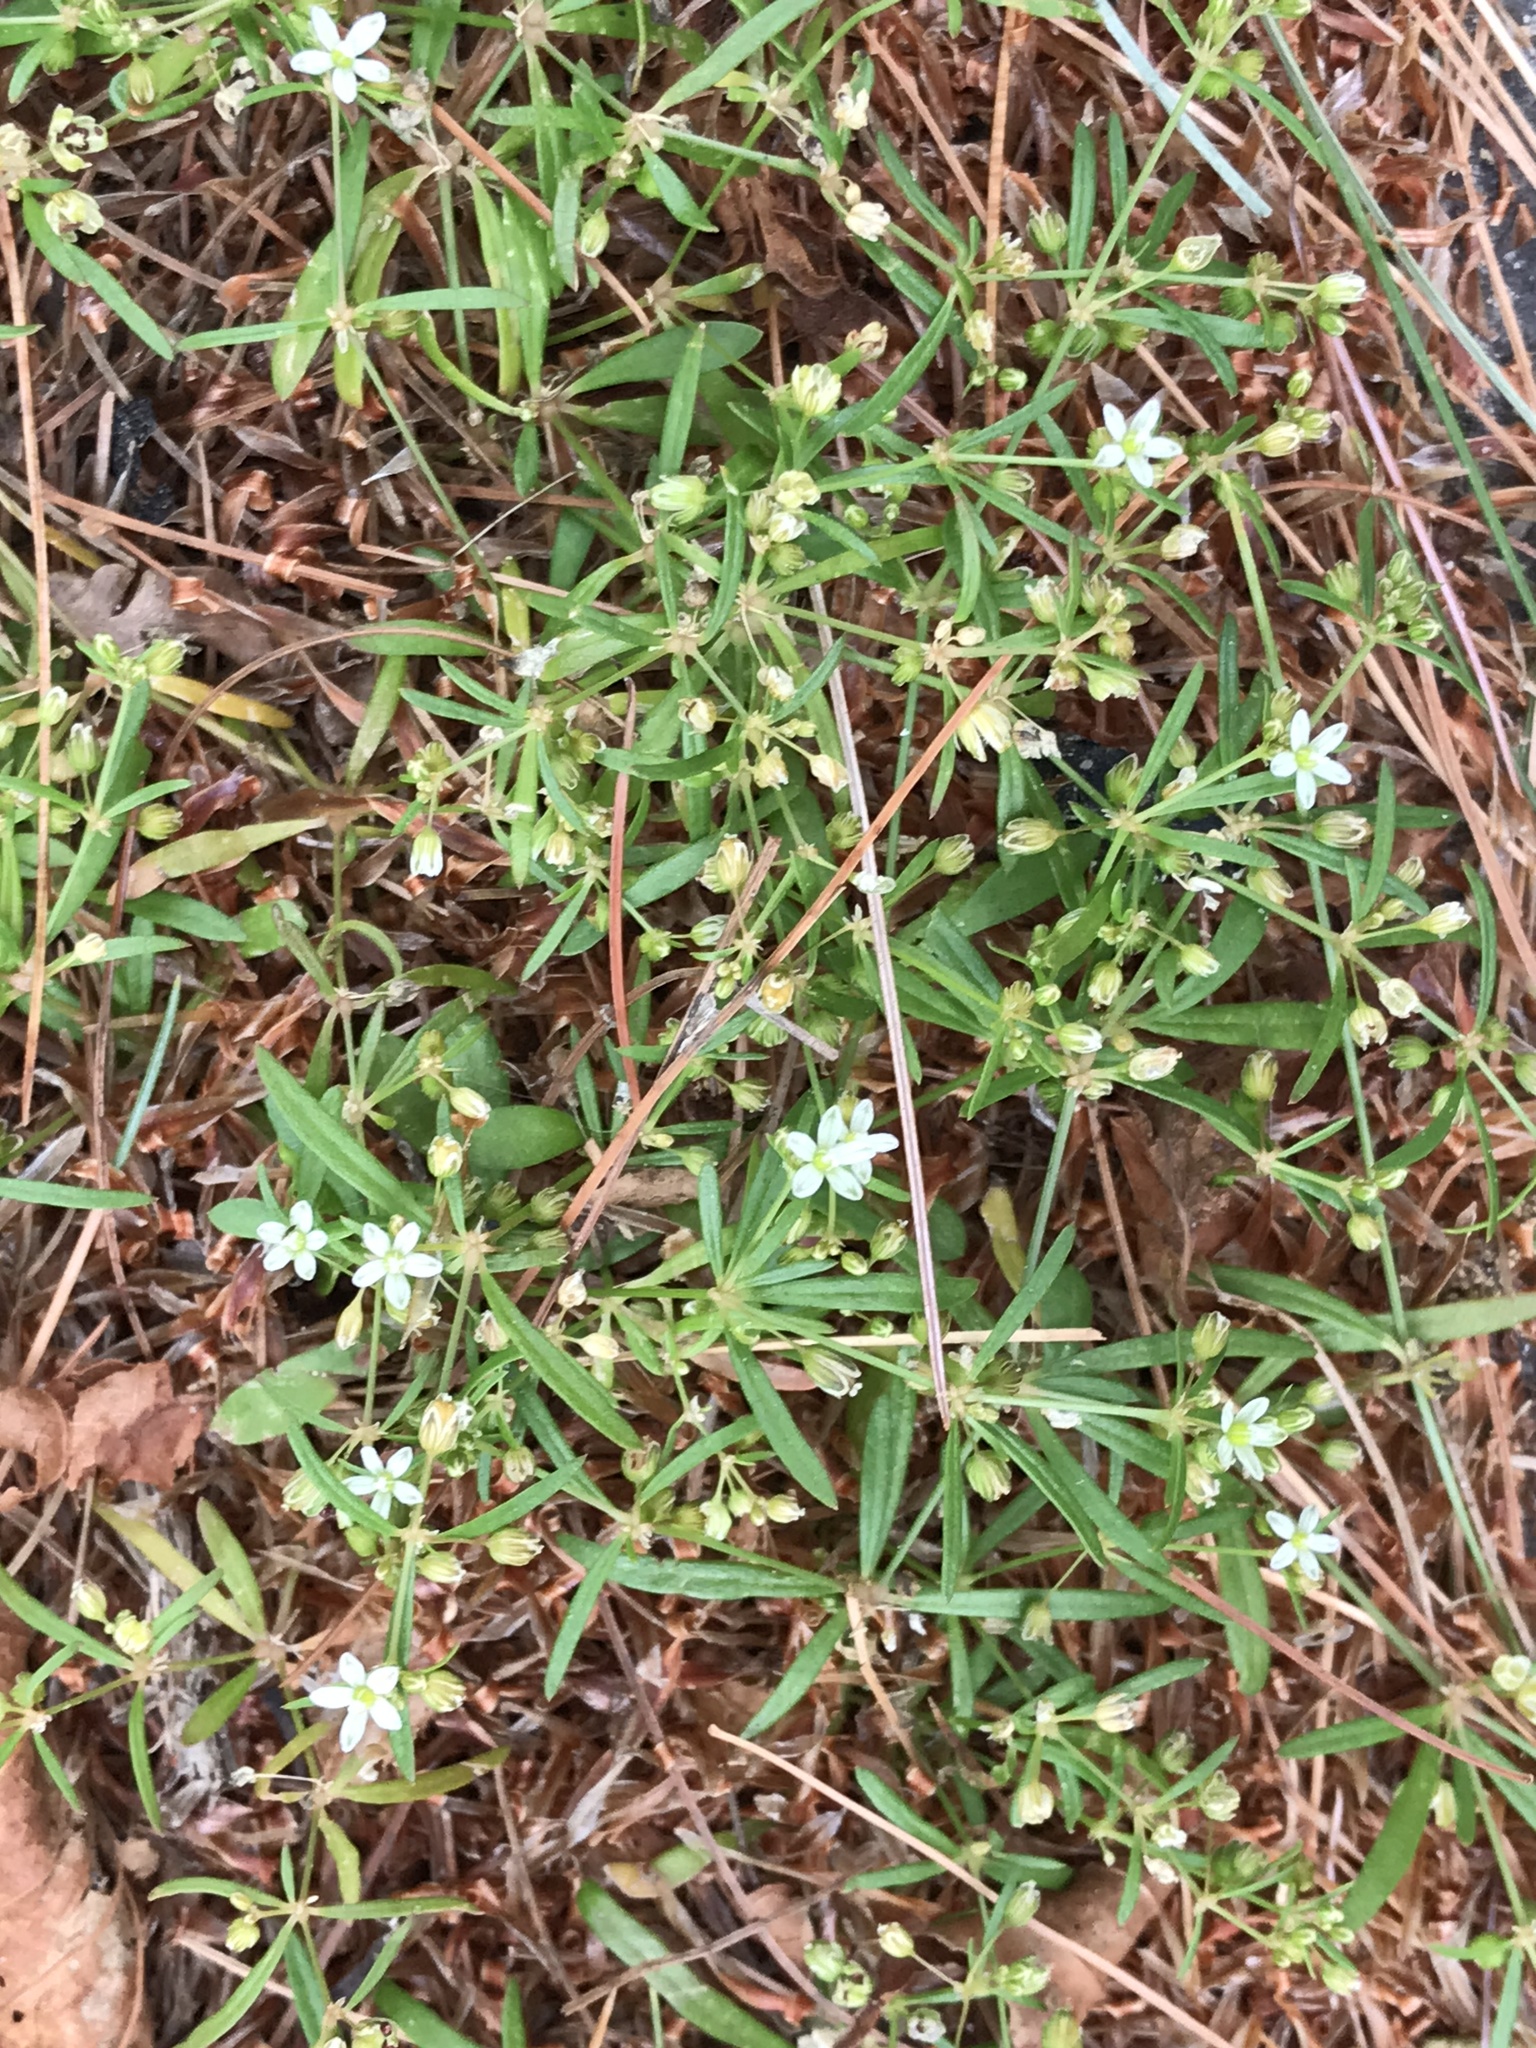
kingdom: Plantae
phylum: Tracheophyta
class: Magnoliopsida
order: Caryophyllales
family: Molluginaceae
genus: Mollugo
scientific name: Mollugo verticillata
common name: Green carpetweed
